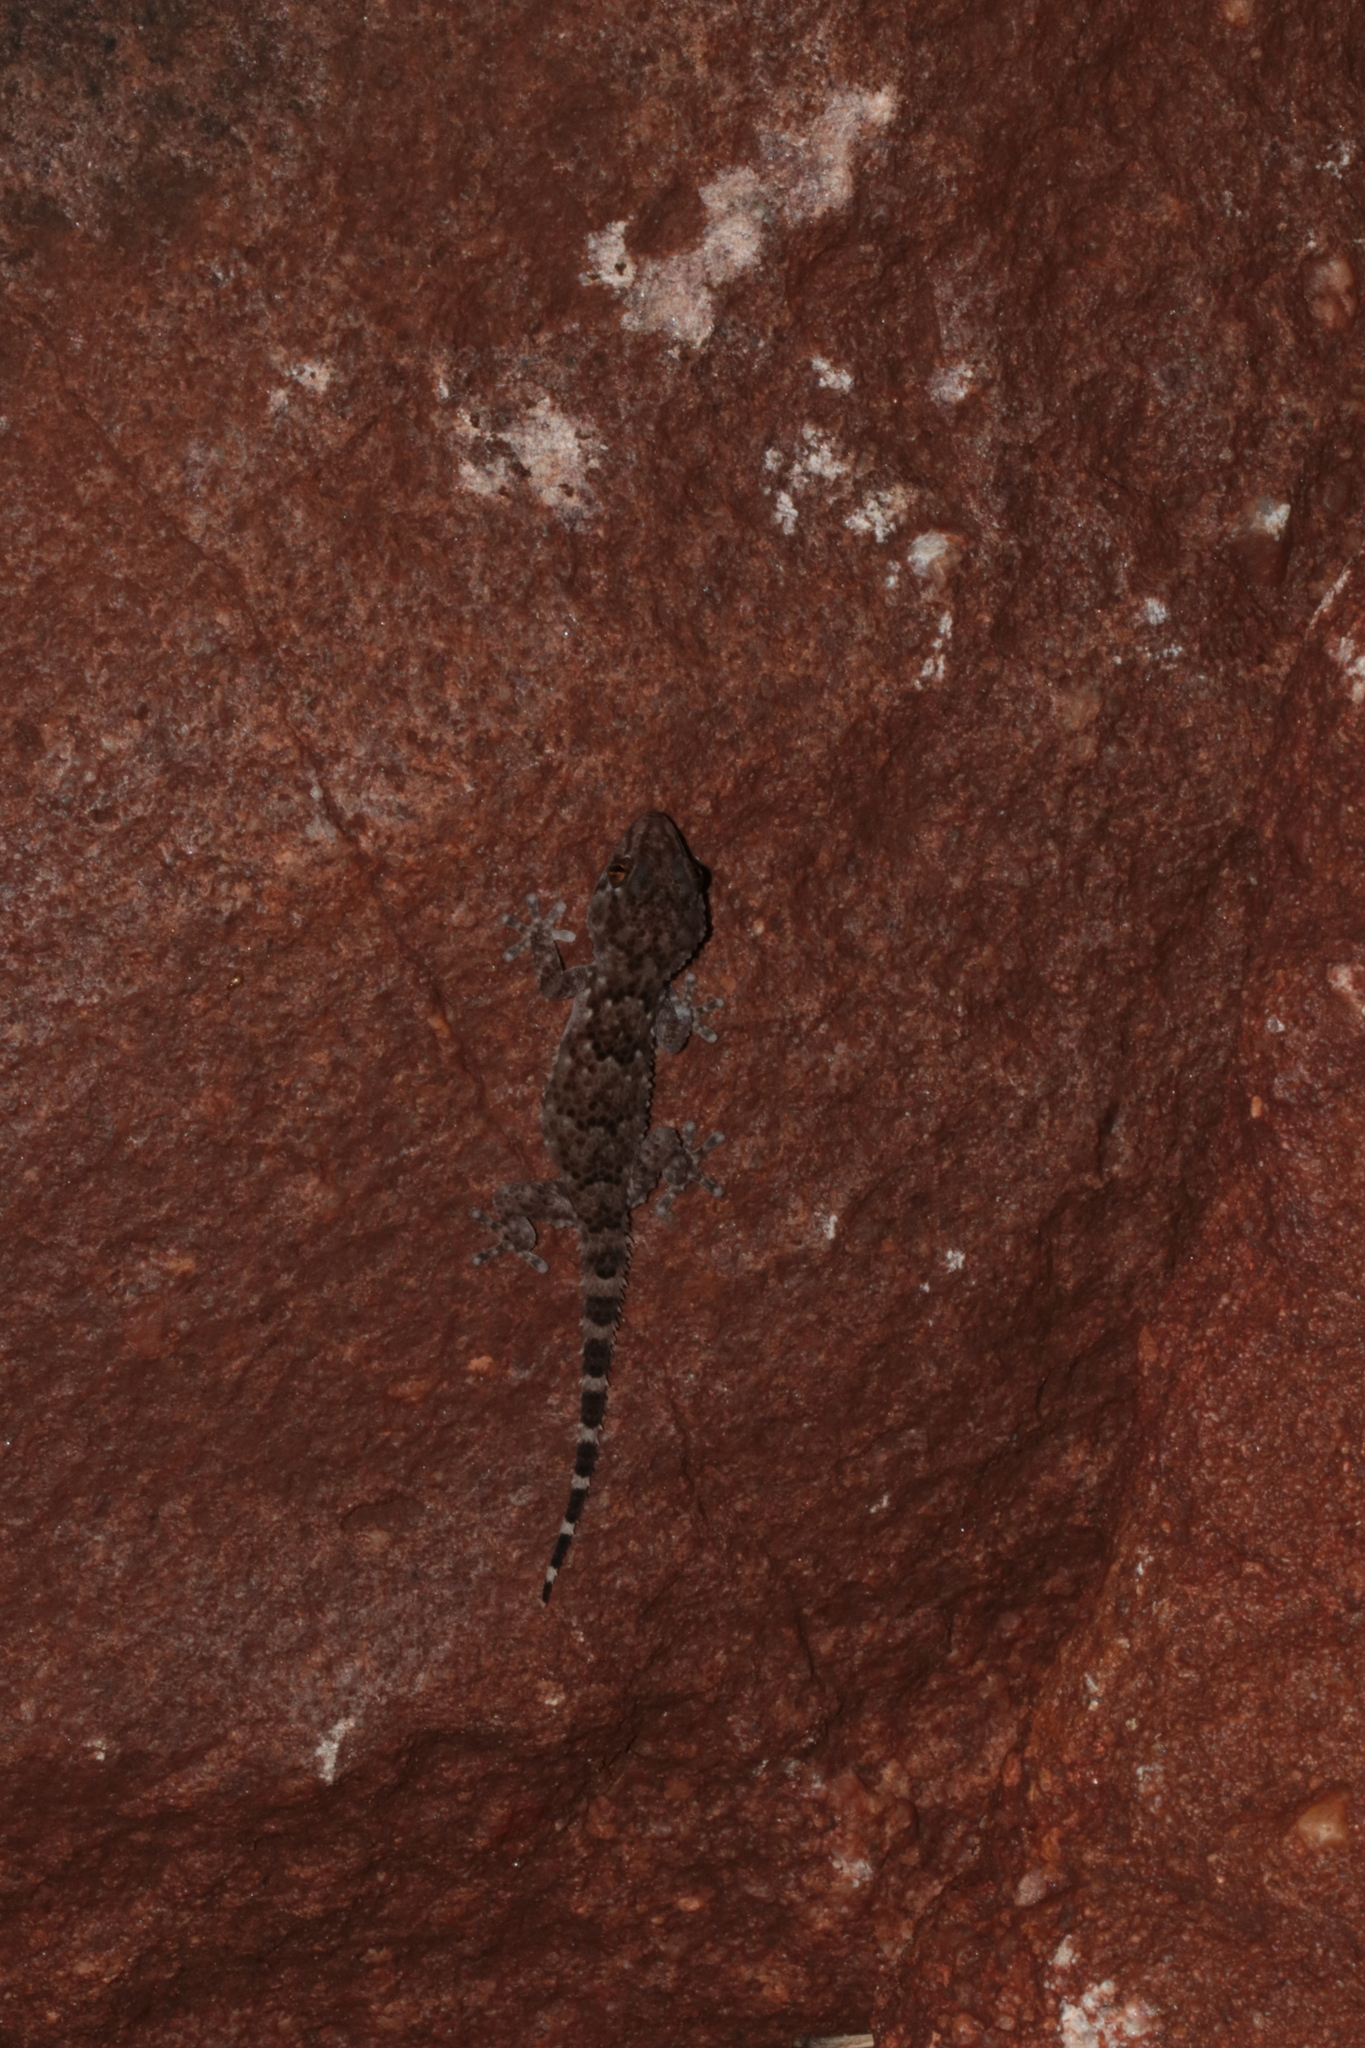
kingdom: Animalia
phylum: Chordata
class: Squamata
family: Gekkonidae
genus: Chondrodactylus
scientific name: Chondrodactylus turneri
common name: Turner’s gecko
